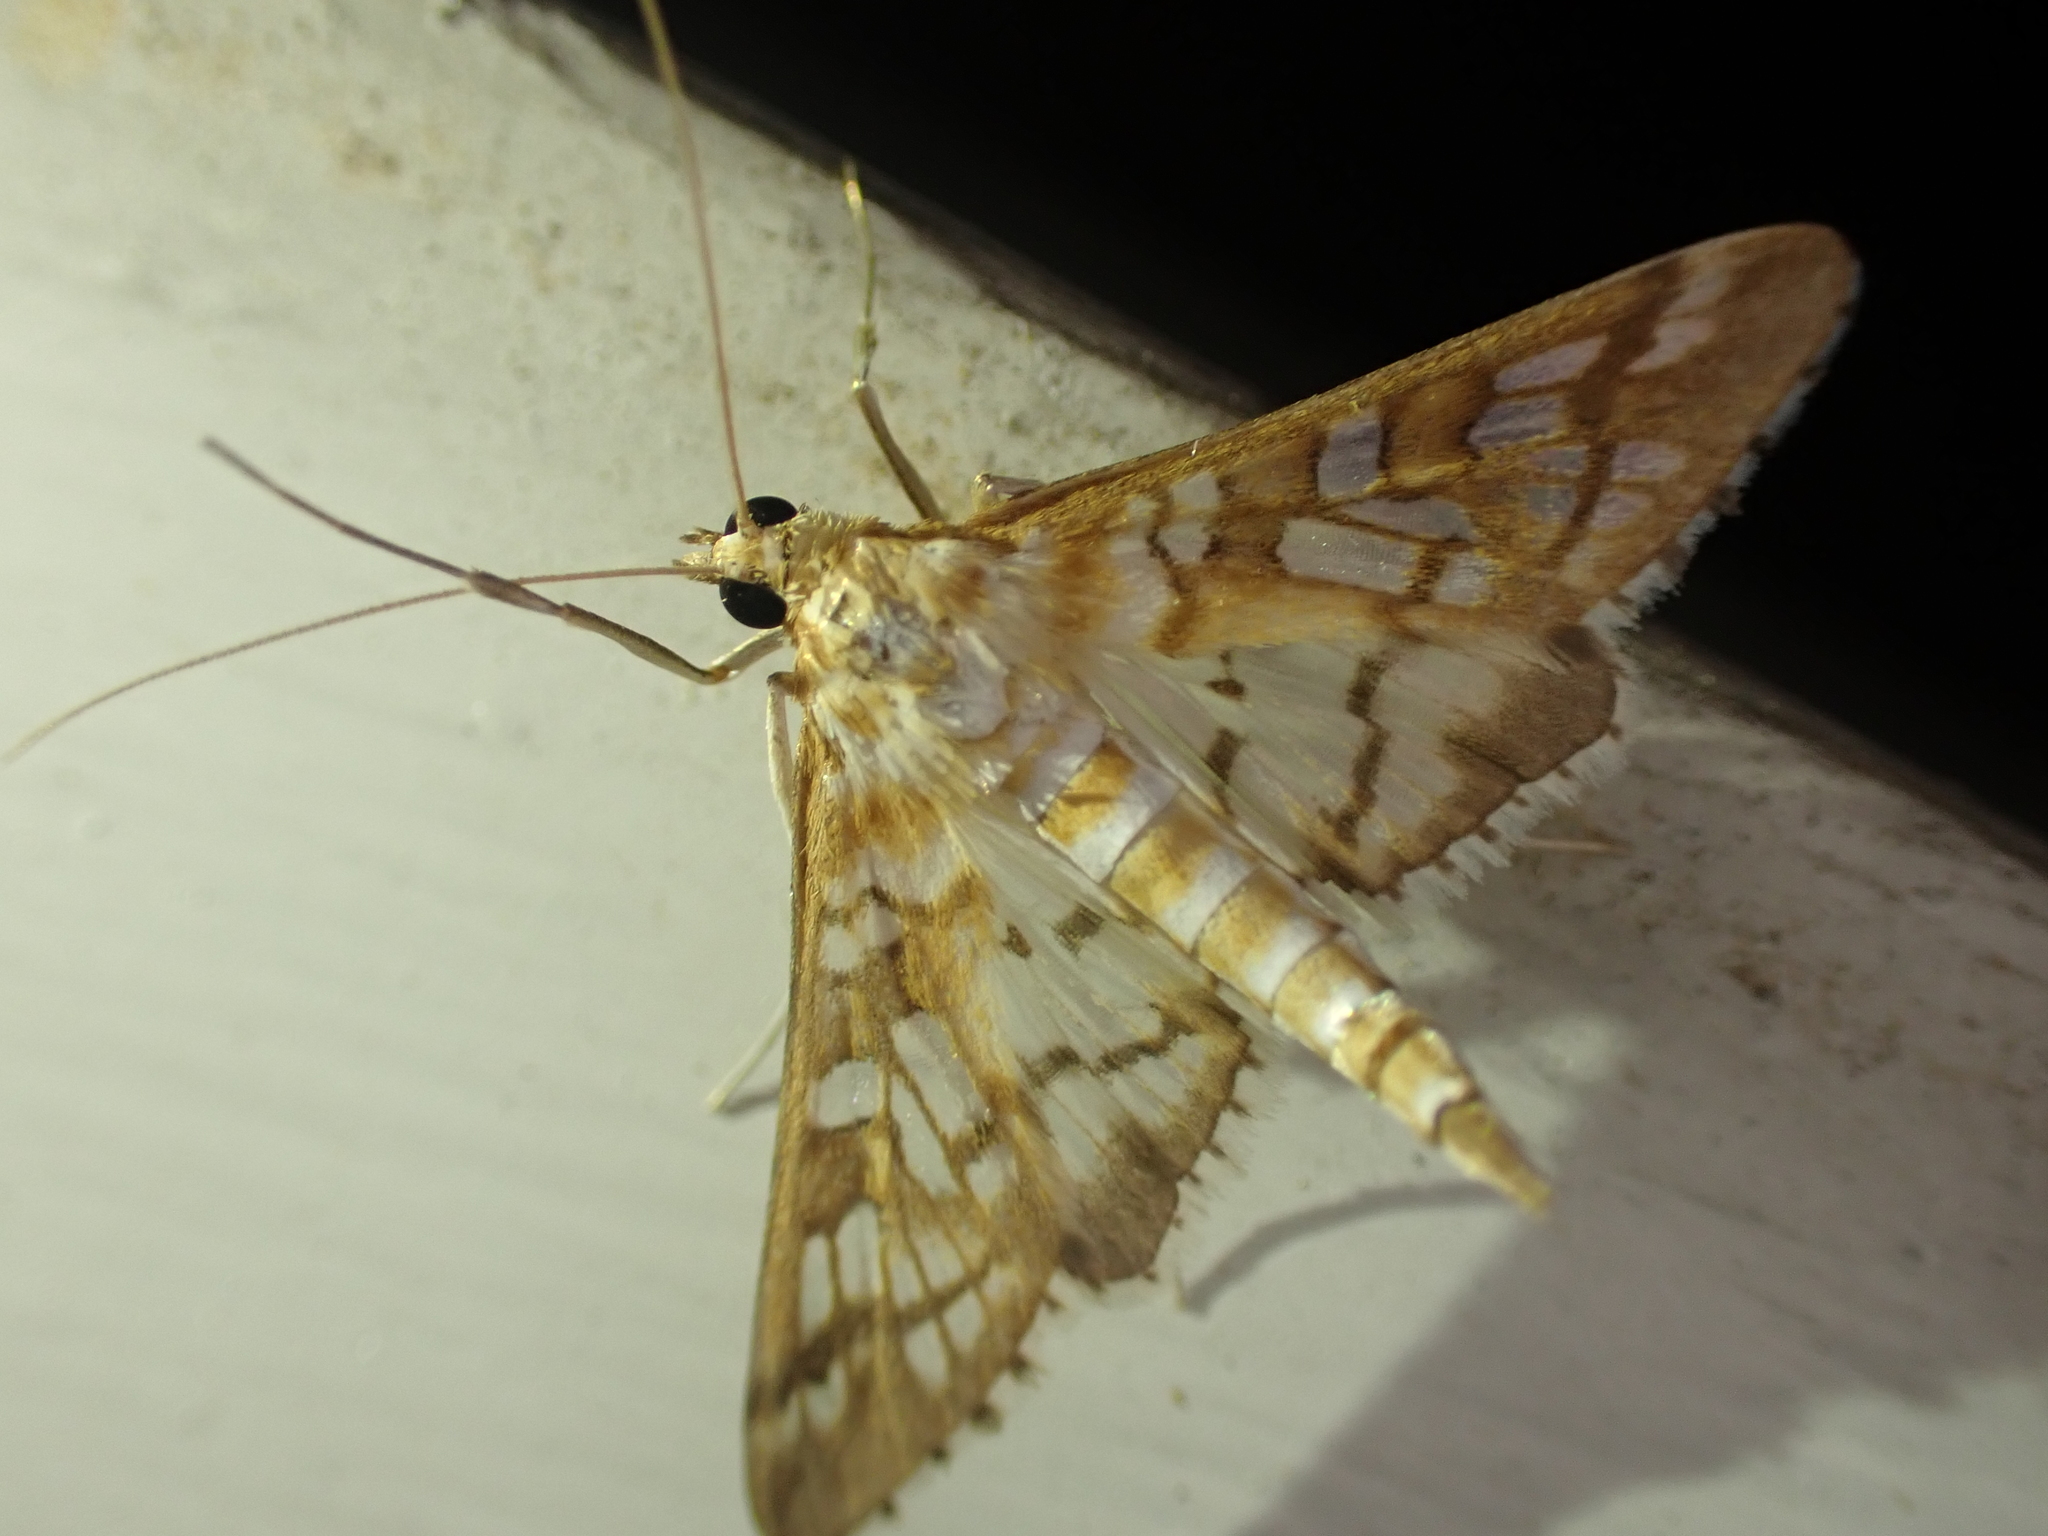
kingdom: Animalia
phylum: Arthropoda
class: Insecta
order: Lepidoptera
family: Crambidae
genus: Epipagis
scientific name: Epipagis fenestralis
